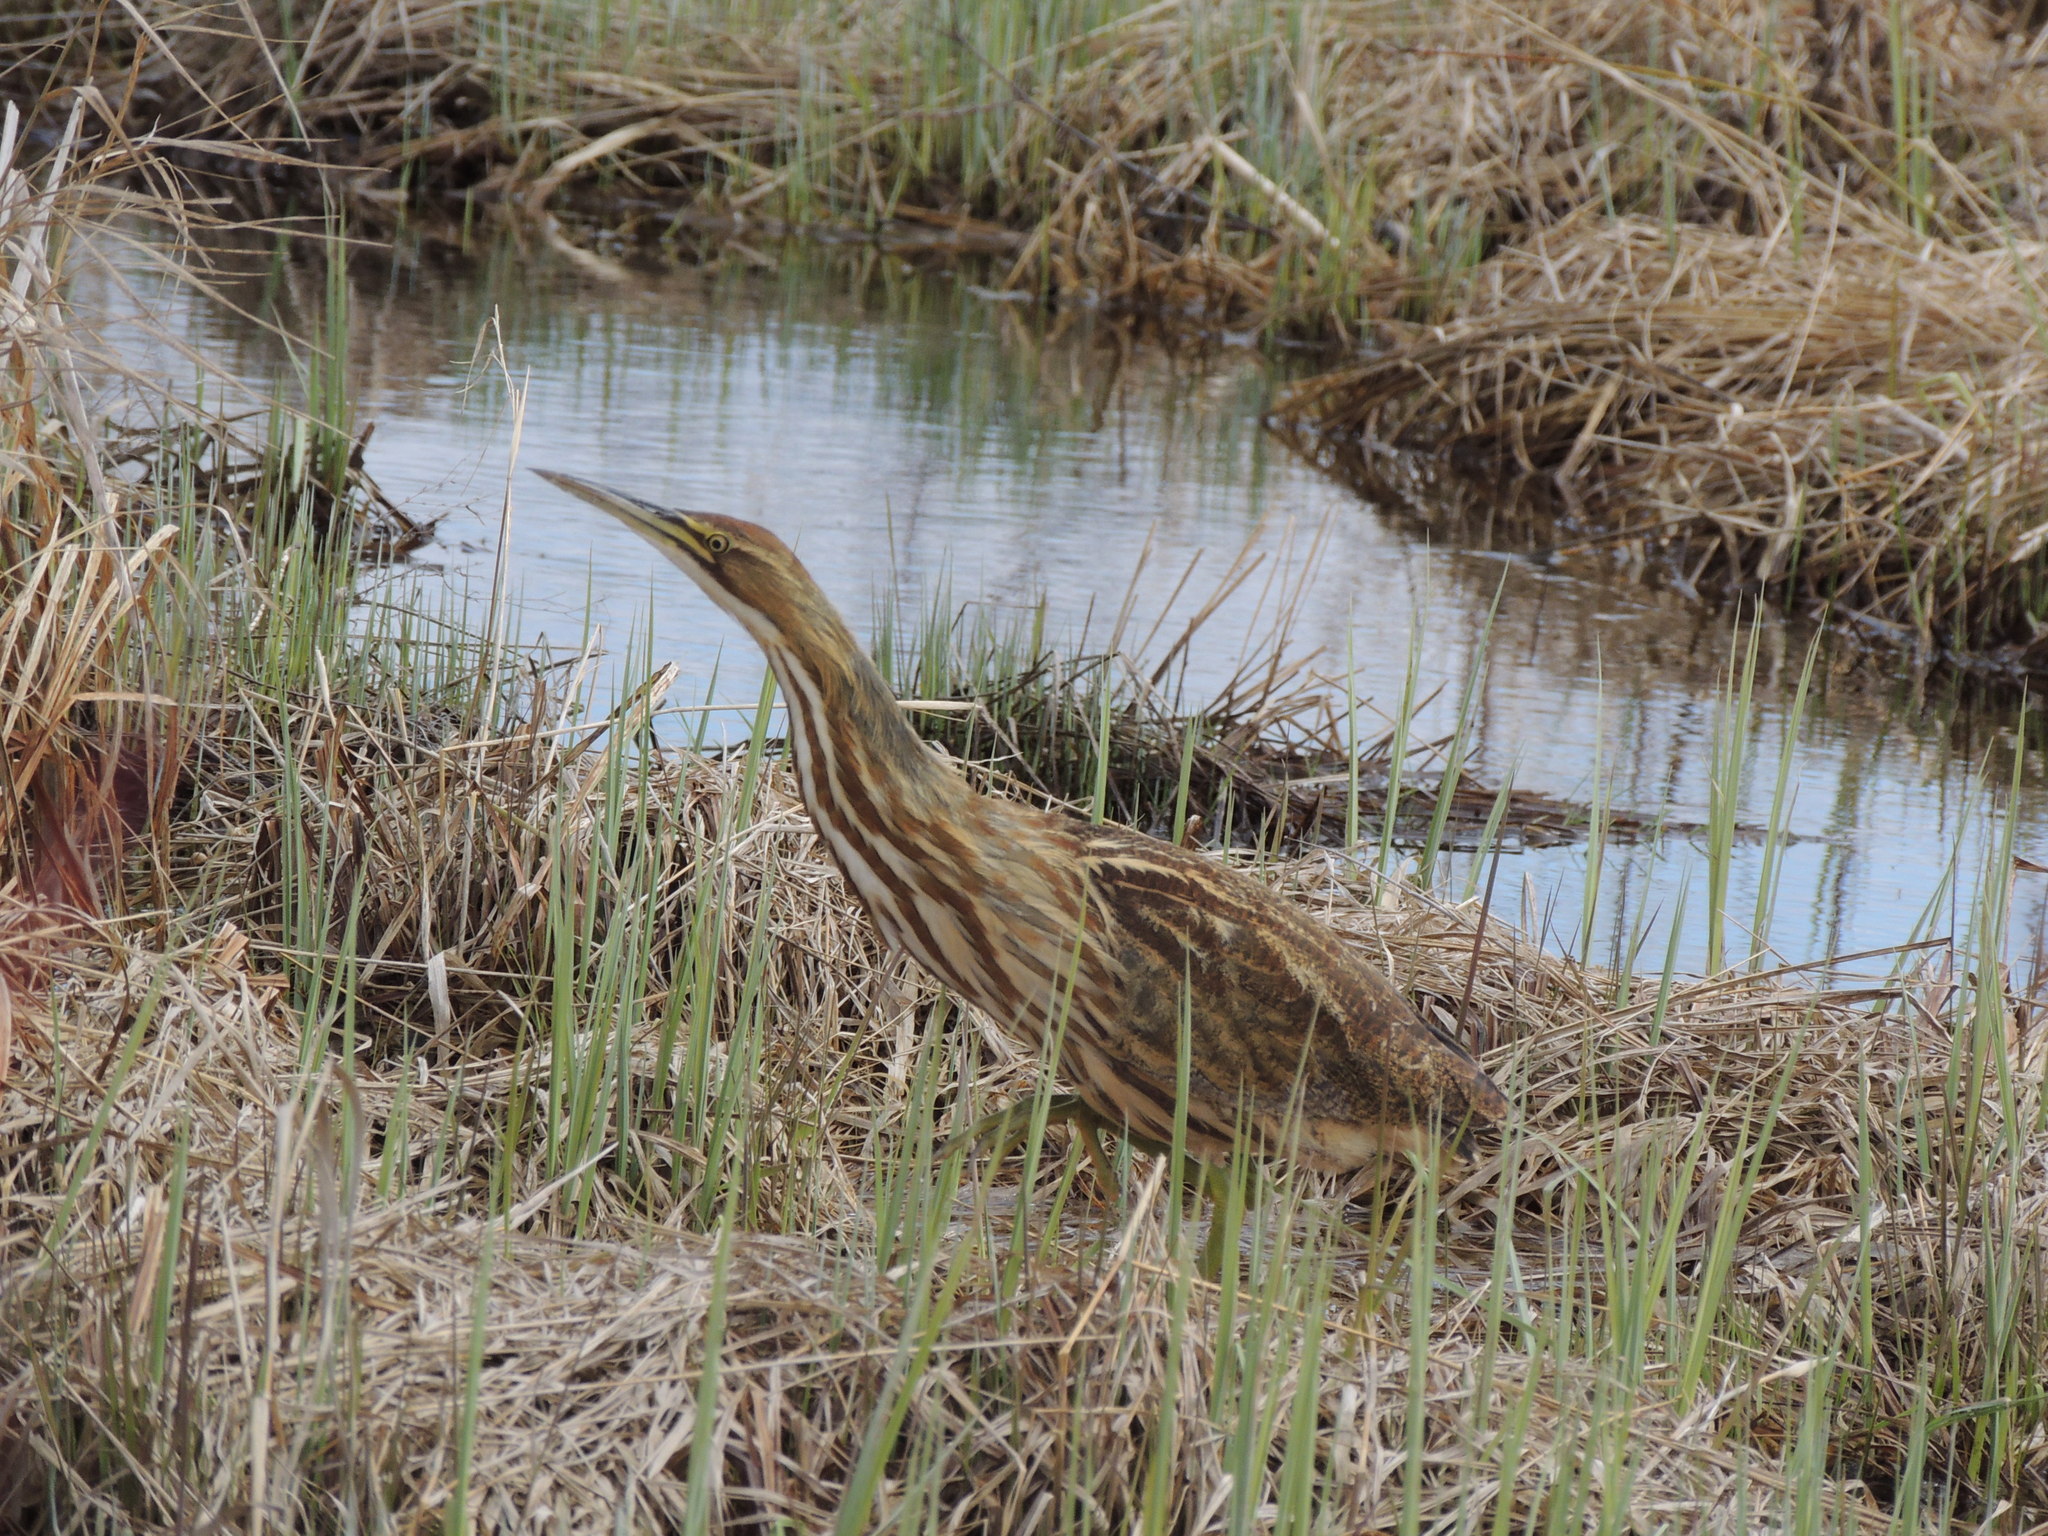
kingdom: Animalia
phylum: Chordata
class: Aves
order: Pelecaniformes
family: Ardeidae
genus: Botaurus
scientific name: Botaurus lentiginosus
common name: American bittern
